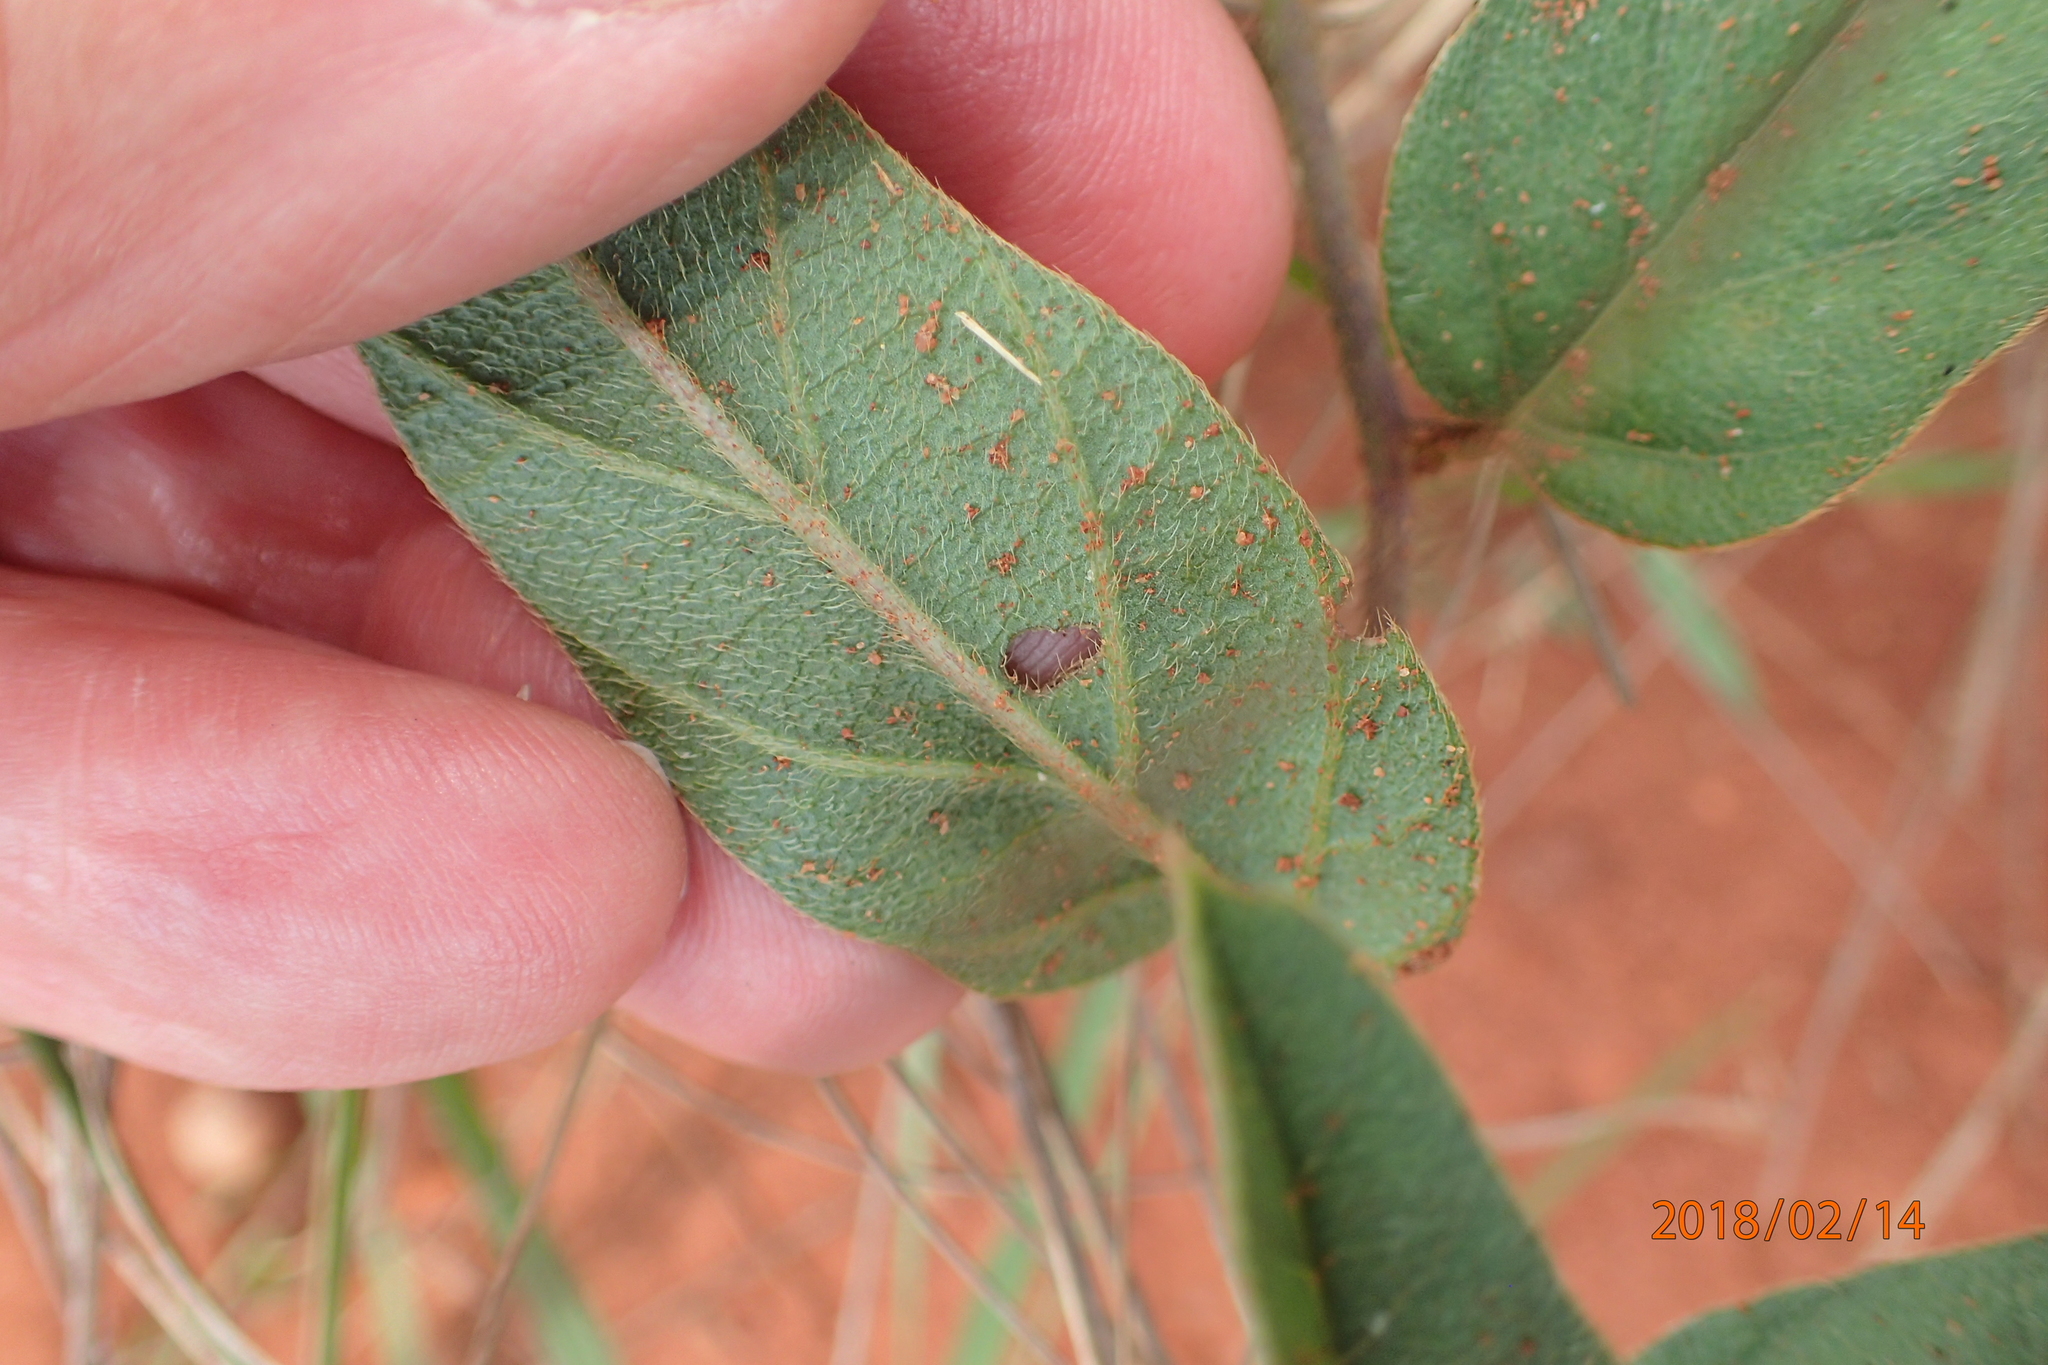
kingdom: Plantae
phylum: Tracheophyta
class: Magnoliopsida
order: Solanales
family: Convolvulaceae
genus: Ipomoea
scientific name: Ipomoea pellita
